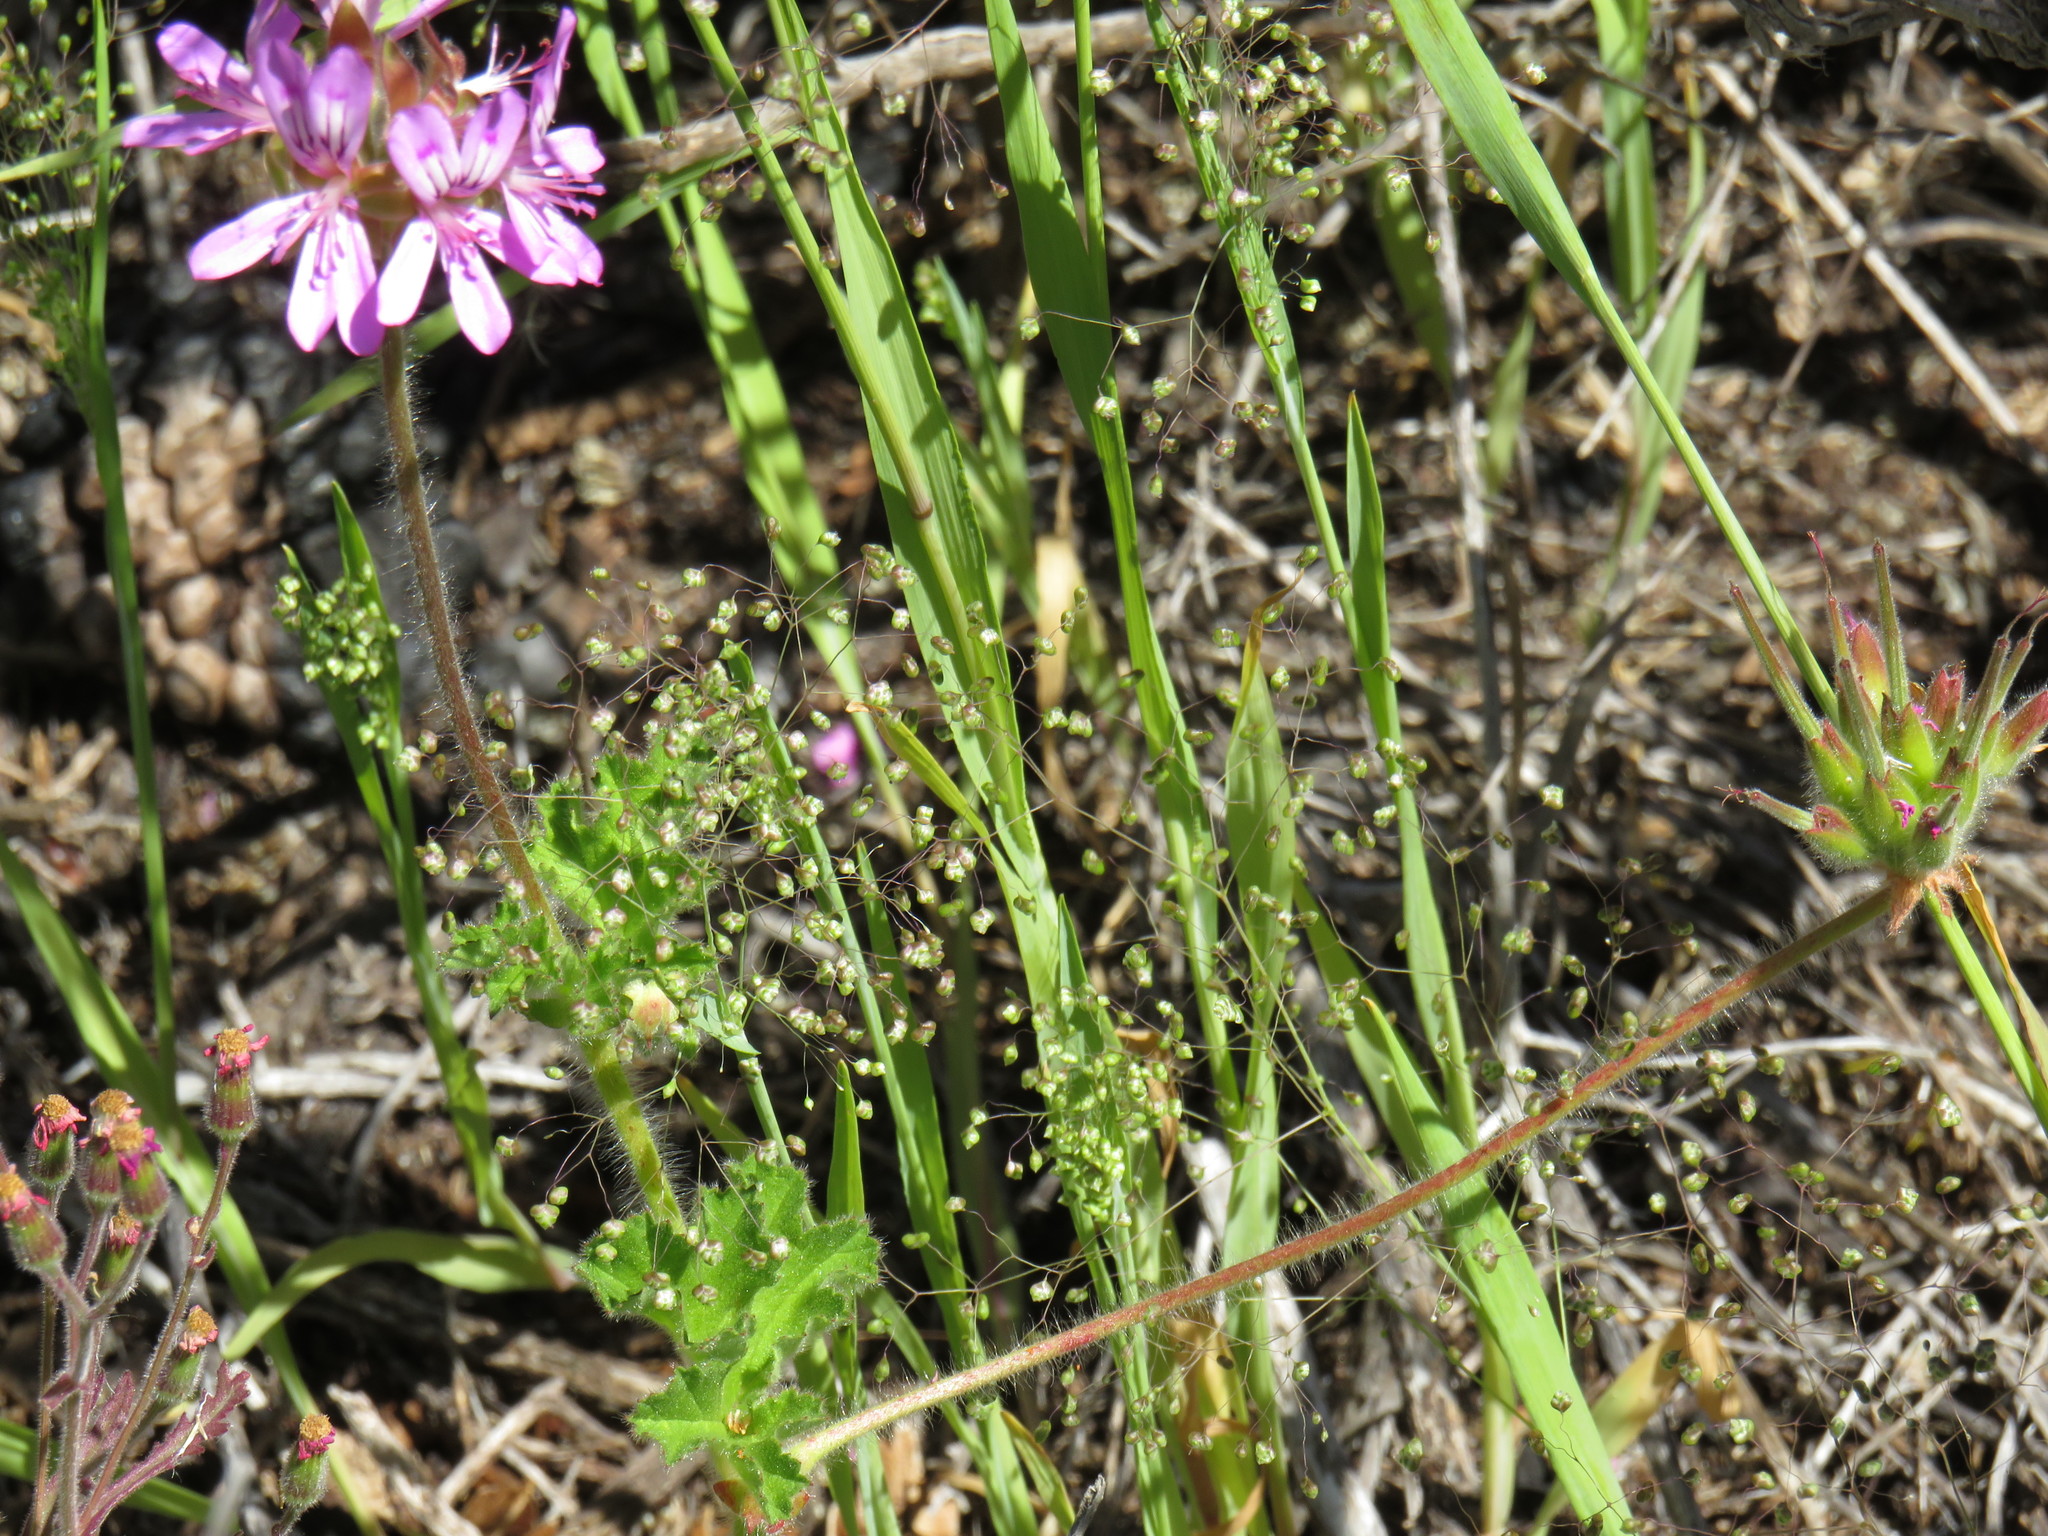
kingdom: Plantae
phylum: Tracheophyta
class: Liliopsida
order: Poales
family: Poaceae
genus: Briza
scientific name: Briza minor
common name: Lesser quaking-grass
